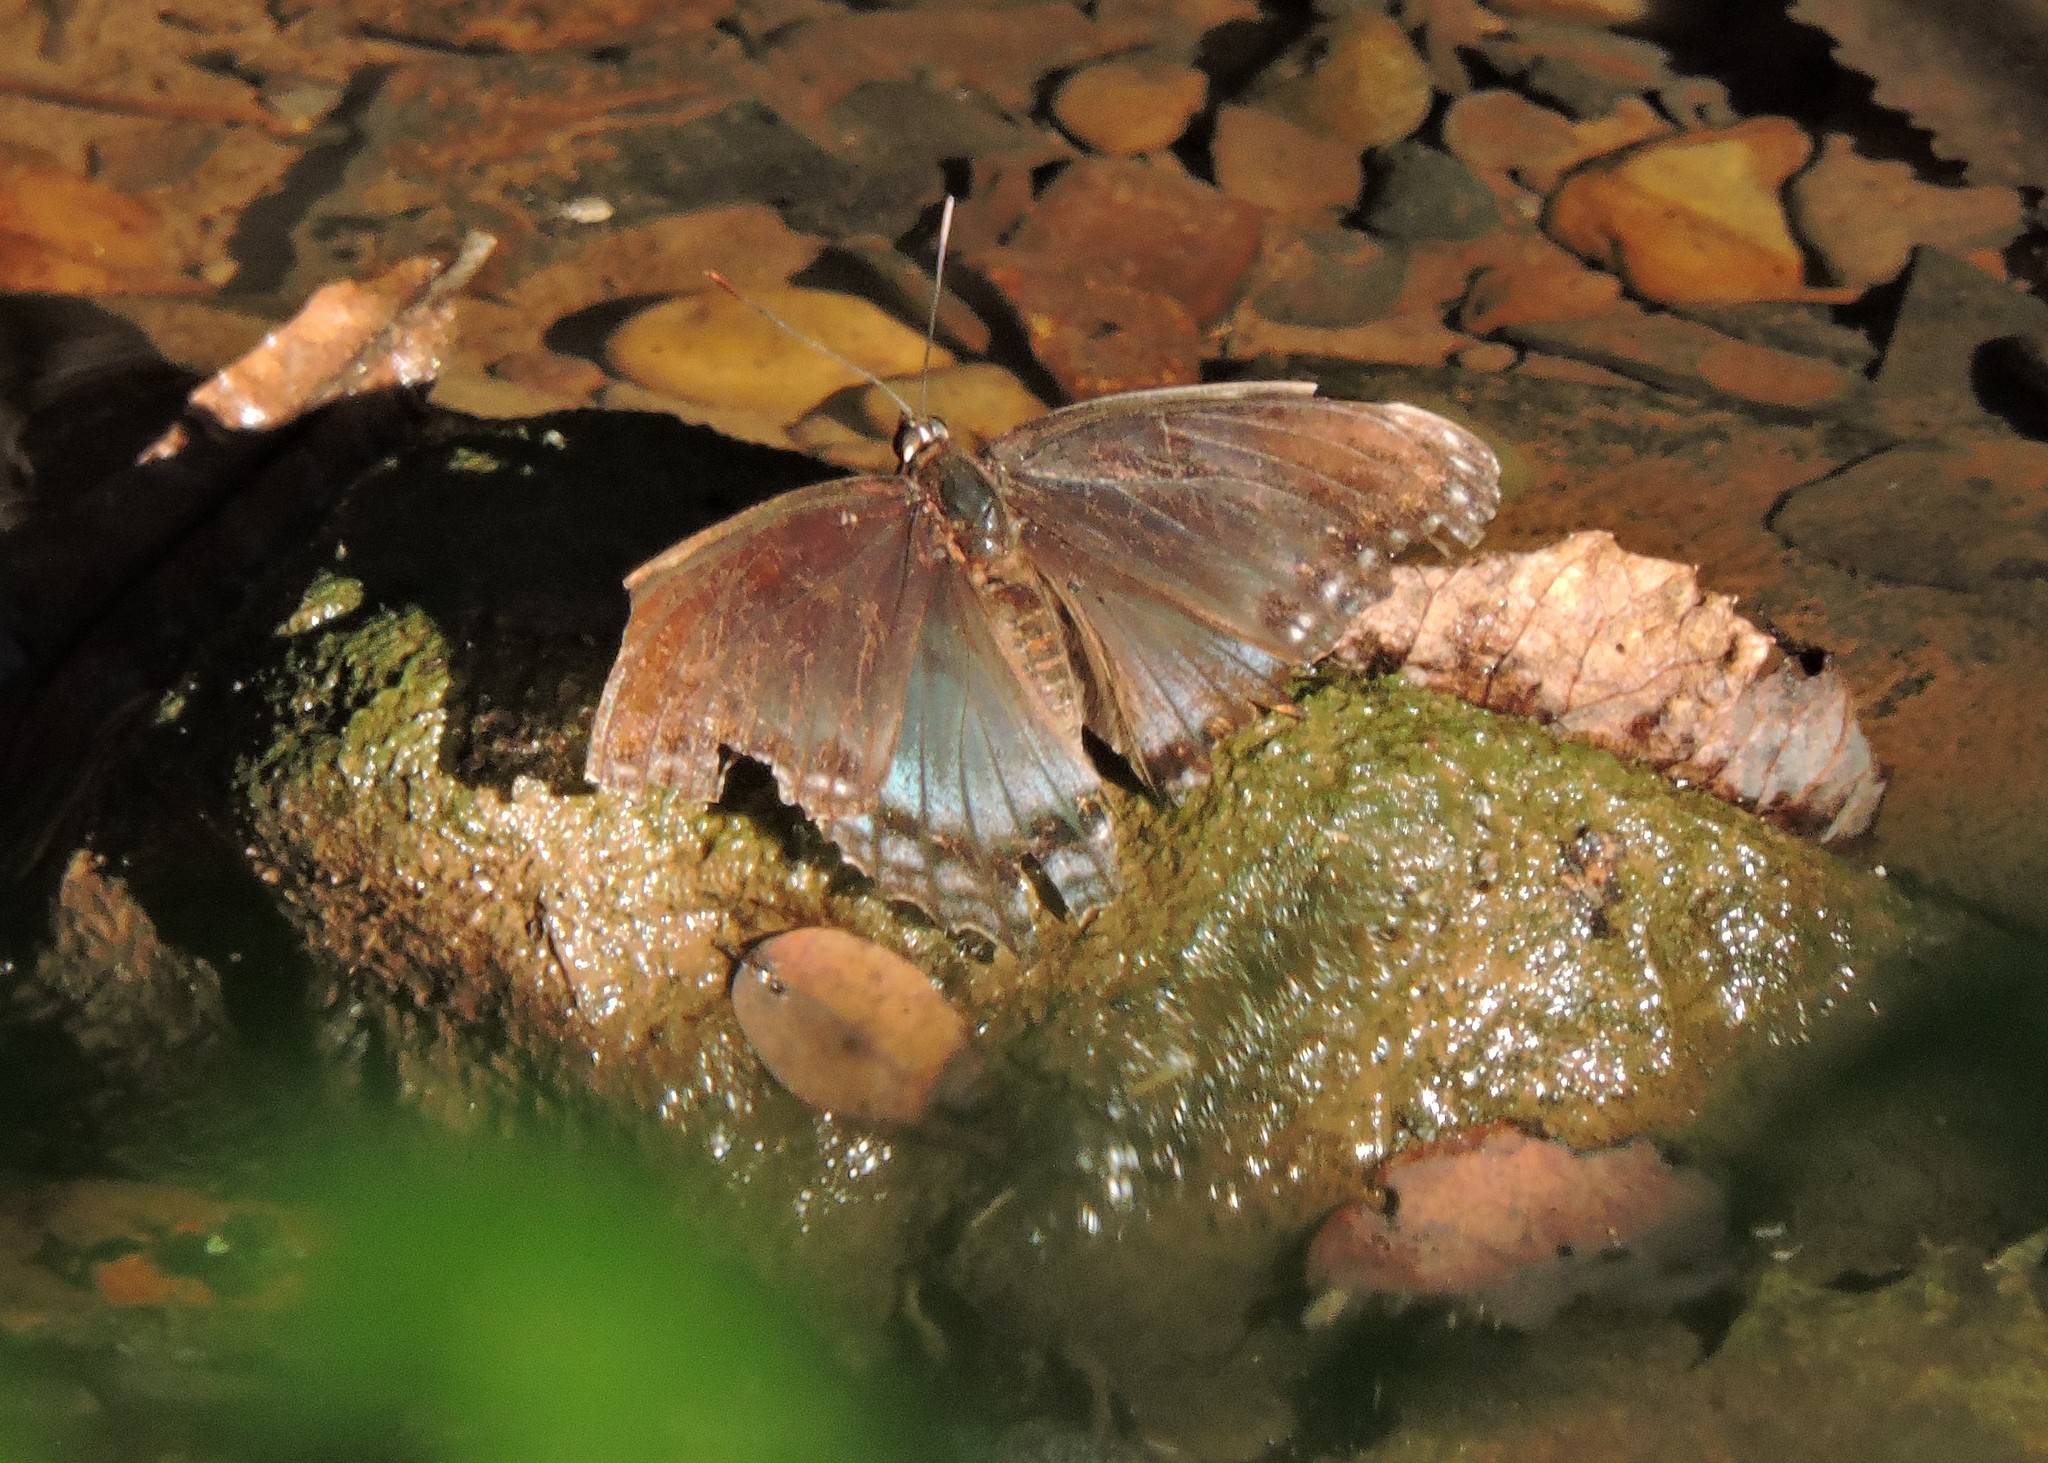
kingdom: Animalia
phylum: Arthropoda
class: Insecta
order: Lepidoptera
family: Nymphalidae
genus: Limenitis
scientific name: Limenitis astyanax
